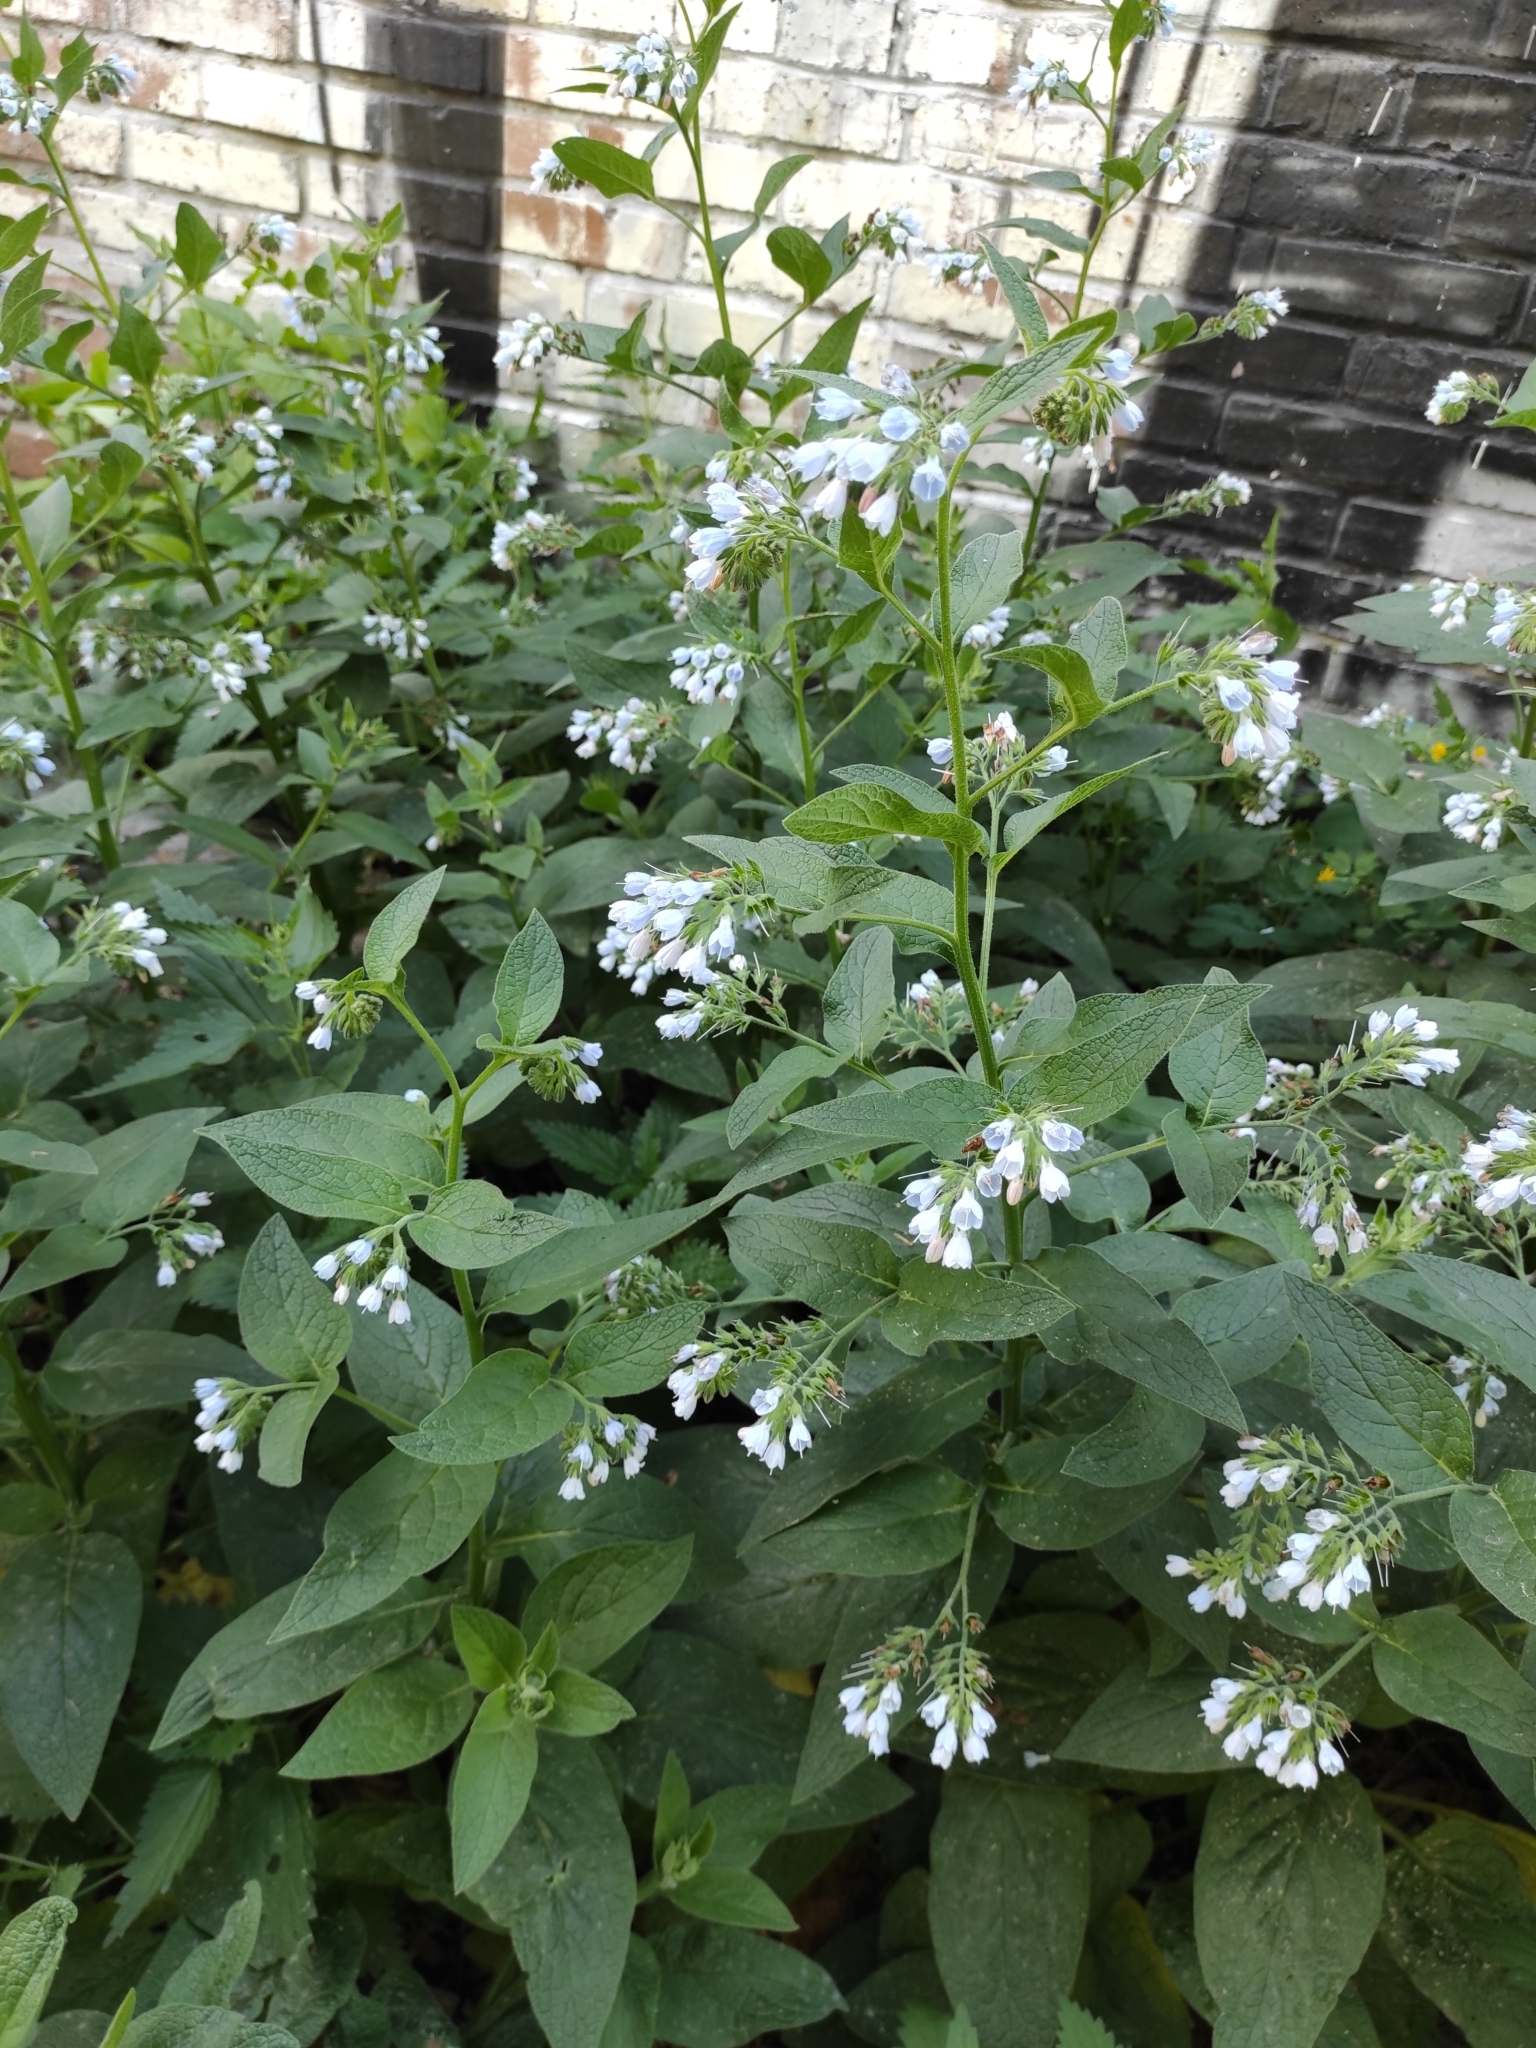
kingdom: Plantae
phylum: Tracheophyta
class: Magnoliopsida
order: Boraginales
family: Boraginaceae
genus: Symphytum
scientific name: Symphytum caucasicum
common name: Caucasian comfrey
